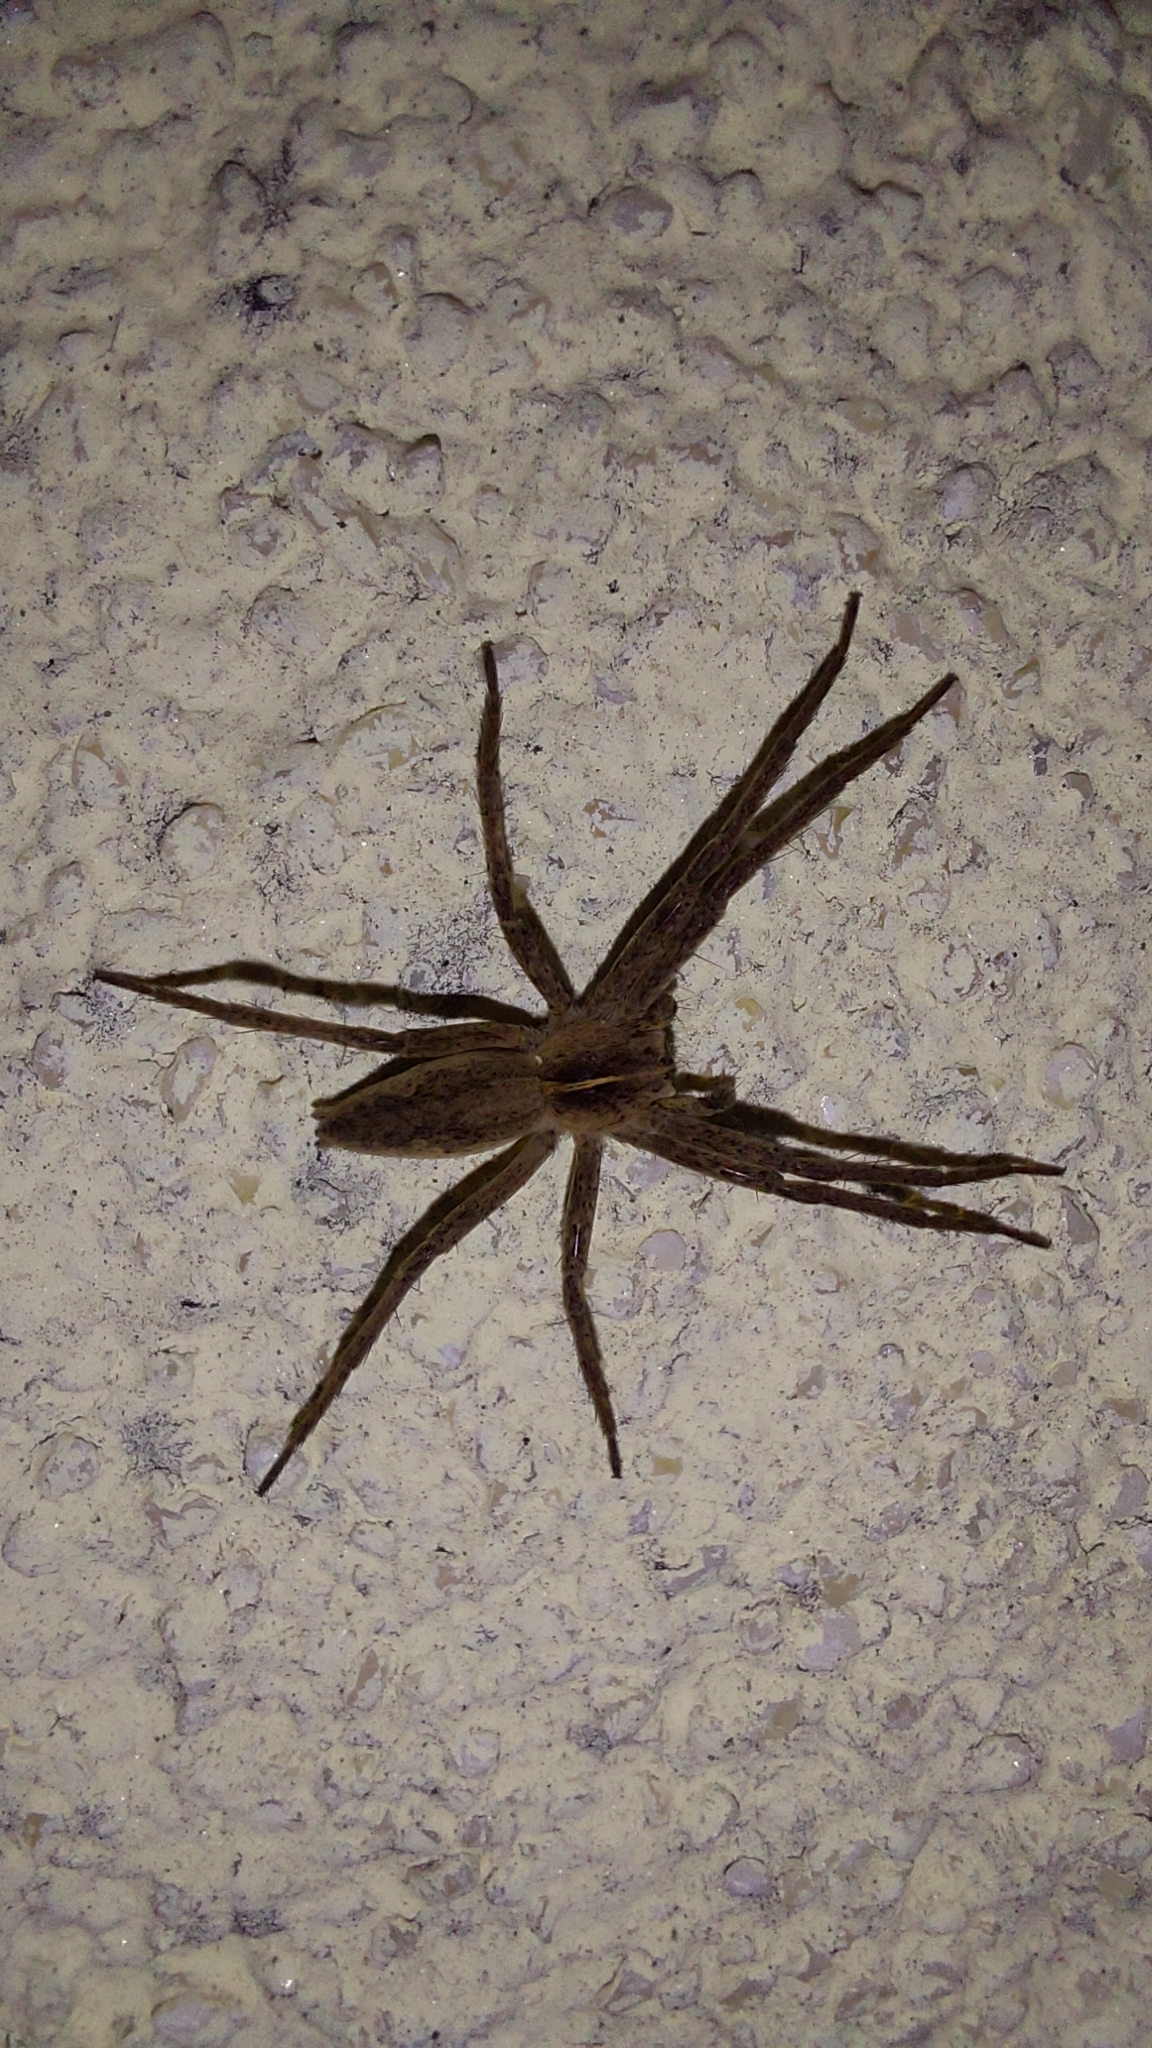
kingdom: Animalia
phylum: Arthropoda
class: Arachnida
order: Araneae
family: Pisauridae
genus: Pisaura
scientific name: Pisaura mirabilis
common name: Tent spider
